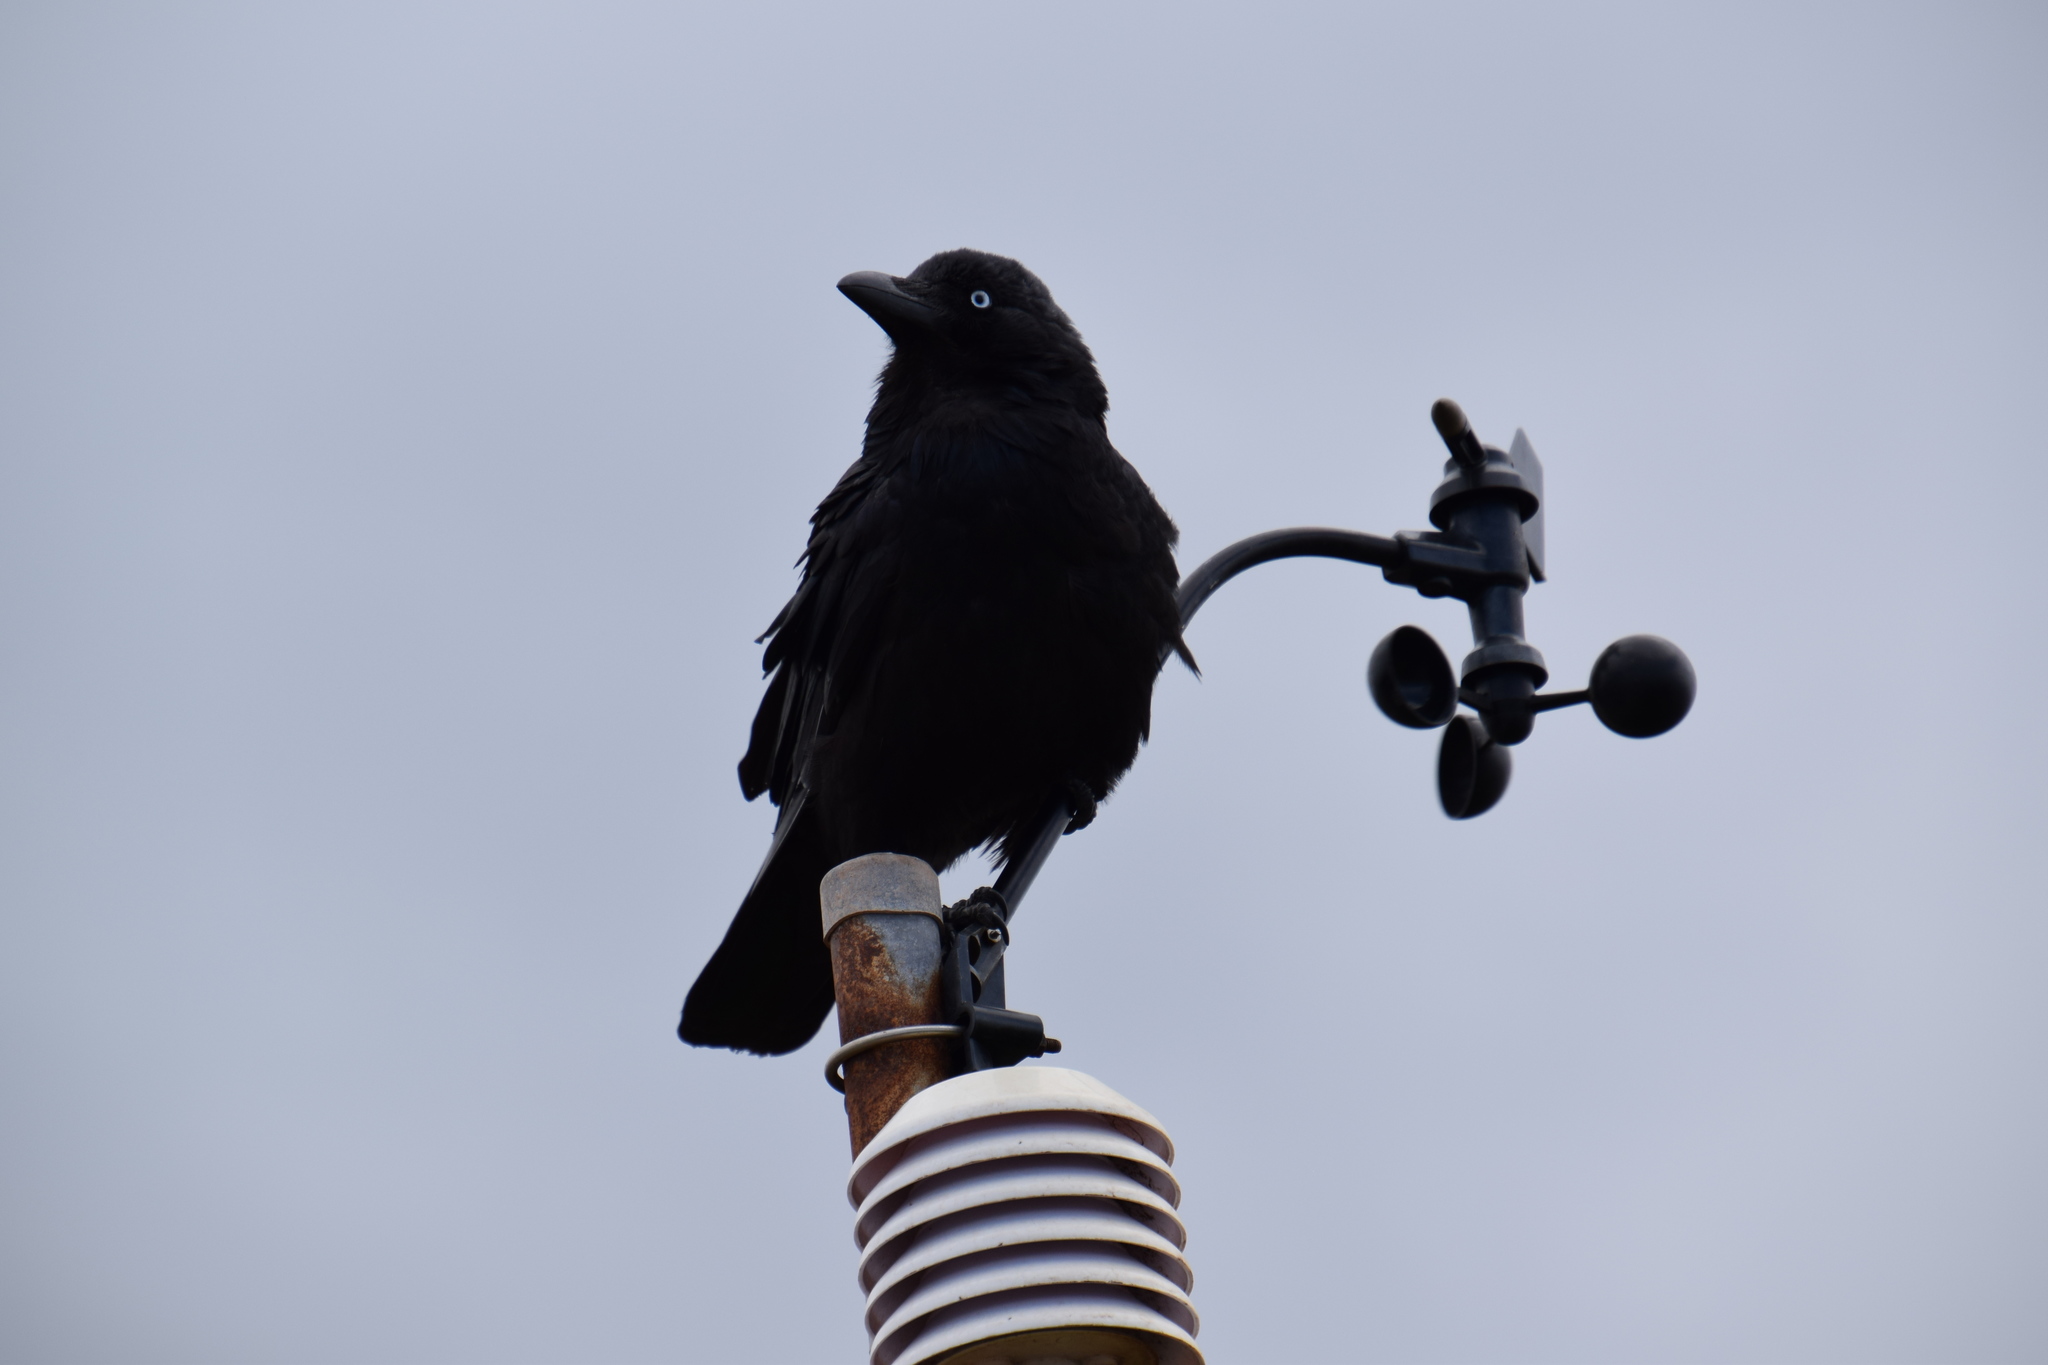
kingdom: Animalia
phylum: Chordata
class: Aves
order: Passeriformes
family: Corvidae
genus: Corvus
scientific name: Corvus coronoides
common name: Australian raven
